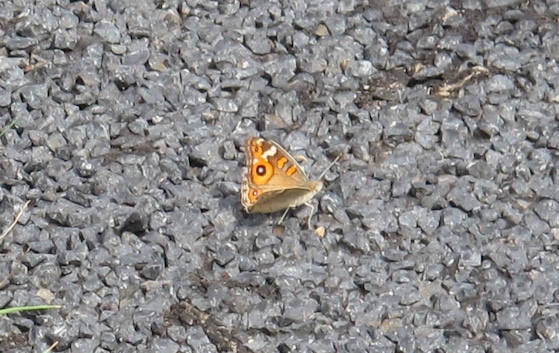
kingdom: Animalia
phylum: Arthropoda
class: Insecta
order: Lepidoptera
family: Nymphalidae
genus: Junonia
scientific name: Junonia villida
